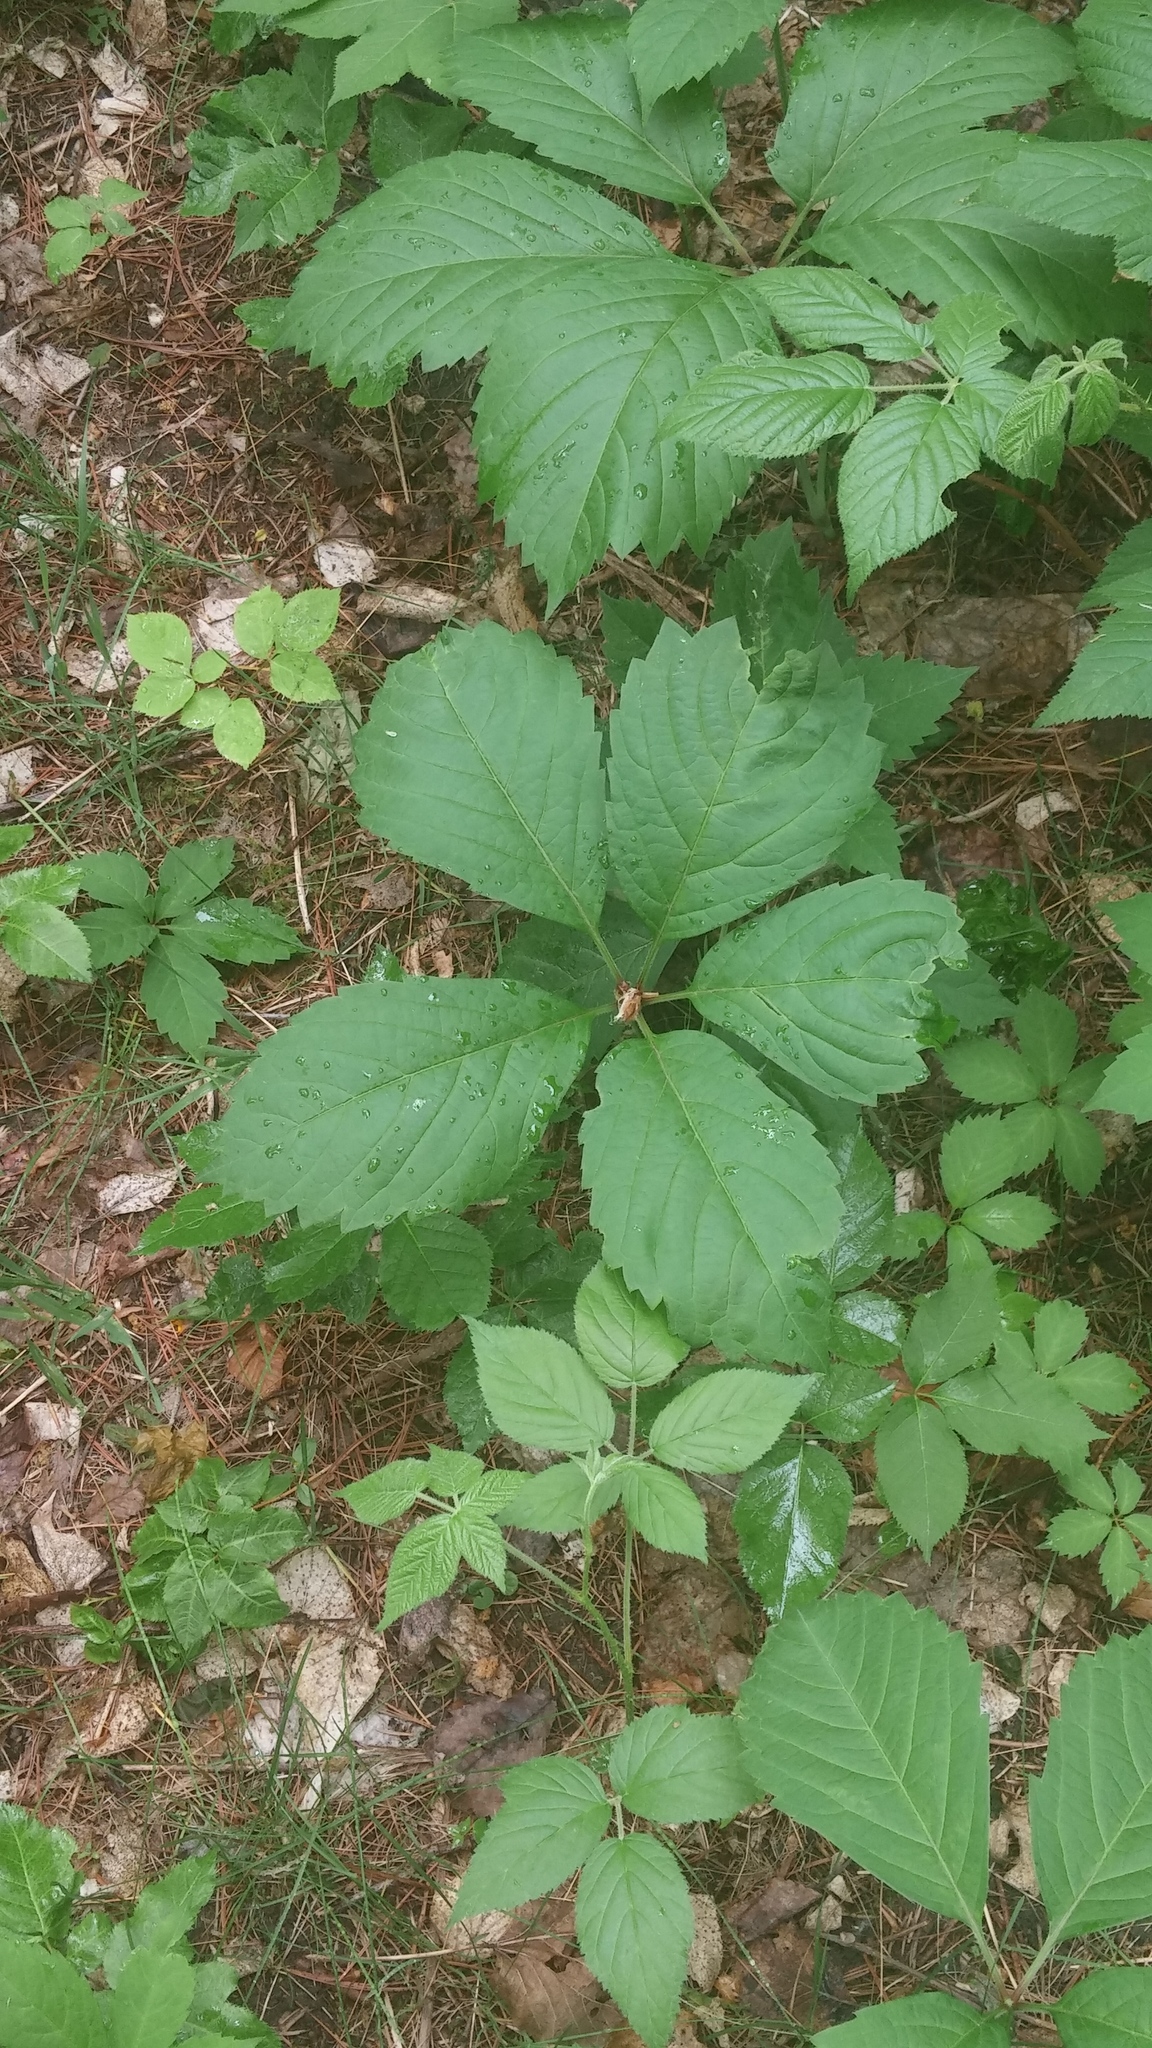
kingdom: Plantae
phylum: Tracheophyta
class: Magnoliopsida
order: Vitales
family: Vitaceae
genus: Parthenocissus
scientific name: Parthenocissus inserta
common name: False virginia-creeper
